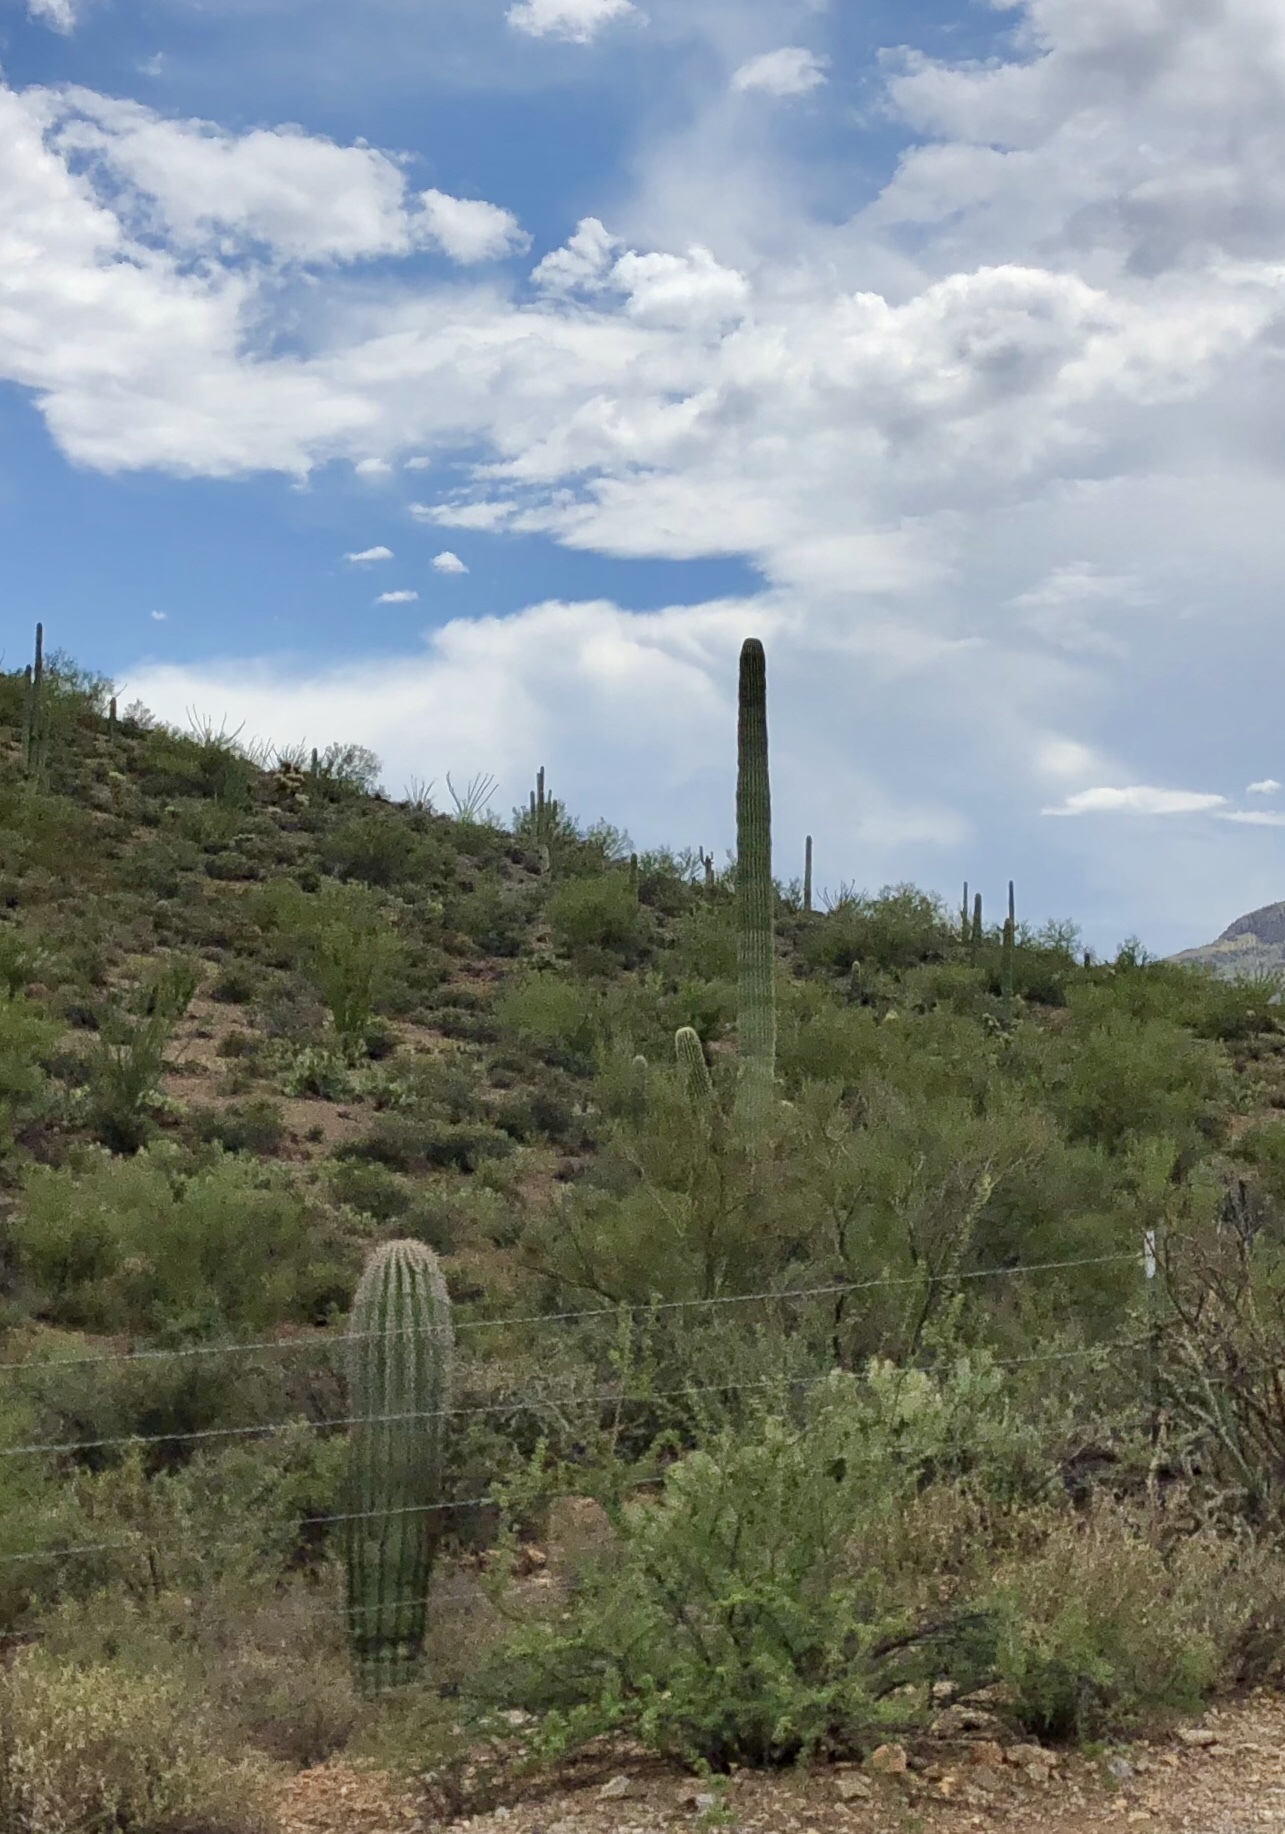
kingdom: Plantae
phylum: Tracheophyta
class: Magnoliopsida
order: Caryophyllales
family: Cactaceae
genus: Carnegiea
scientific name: Carnegiea gigantea
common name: Saguaro
